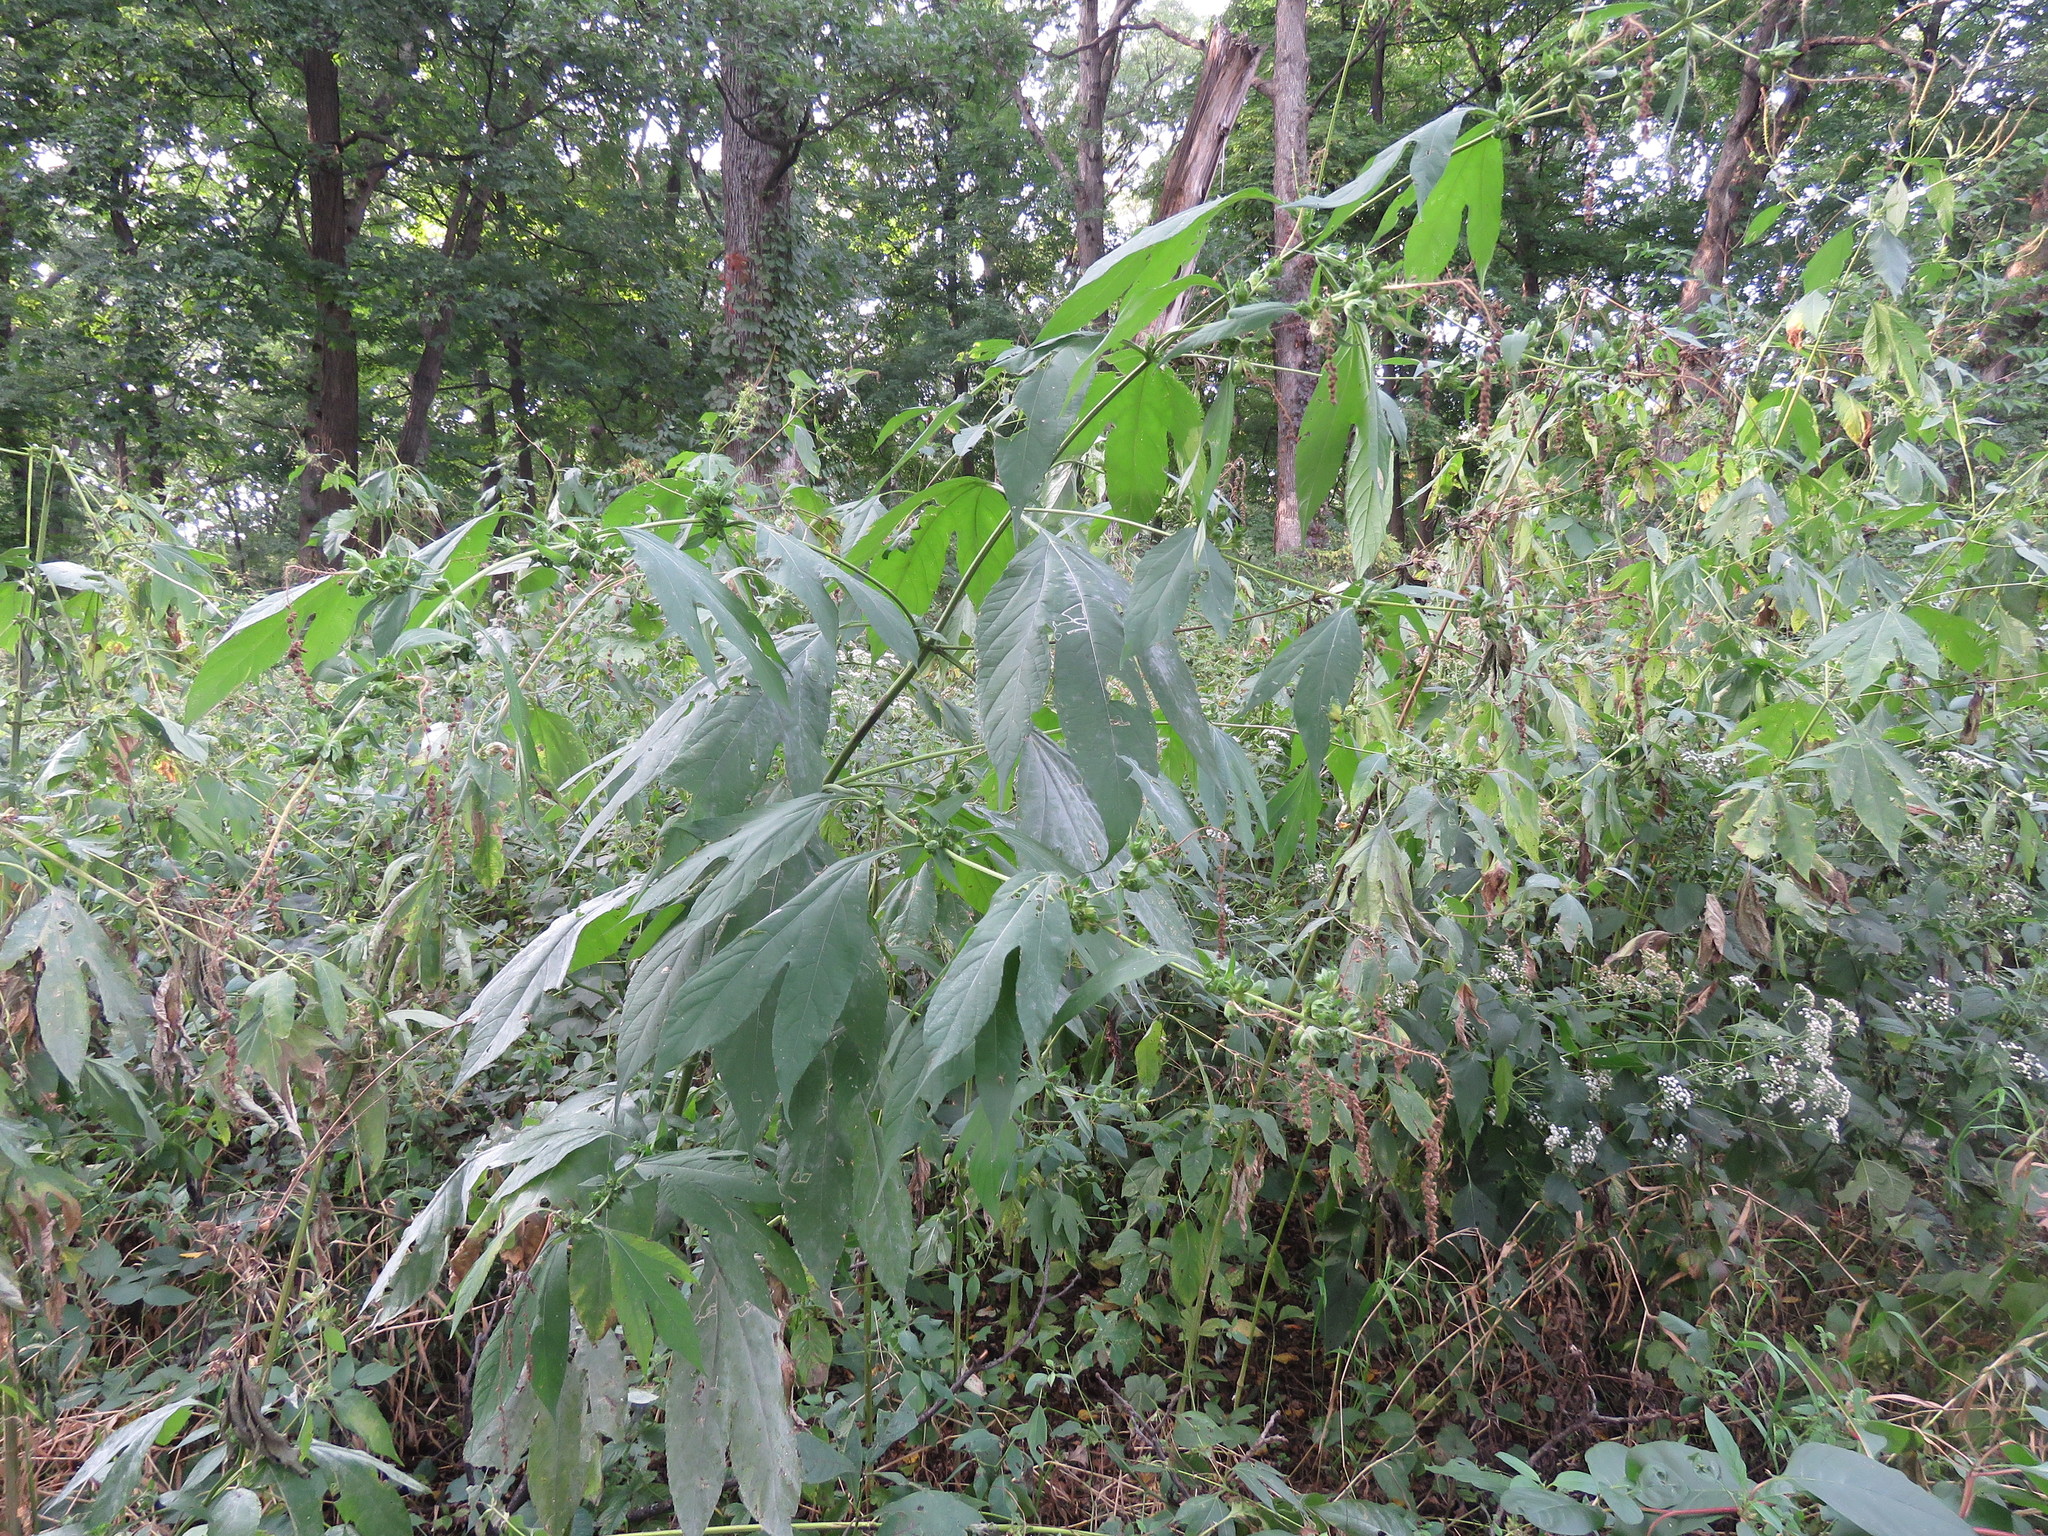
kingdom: Plantae
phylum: Tracheophyta
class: Magnoliopsida
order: Asterales
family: Asteraceae
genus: Ambrosia
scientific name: Ambrosia trifida
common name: Giant ragweed
